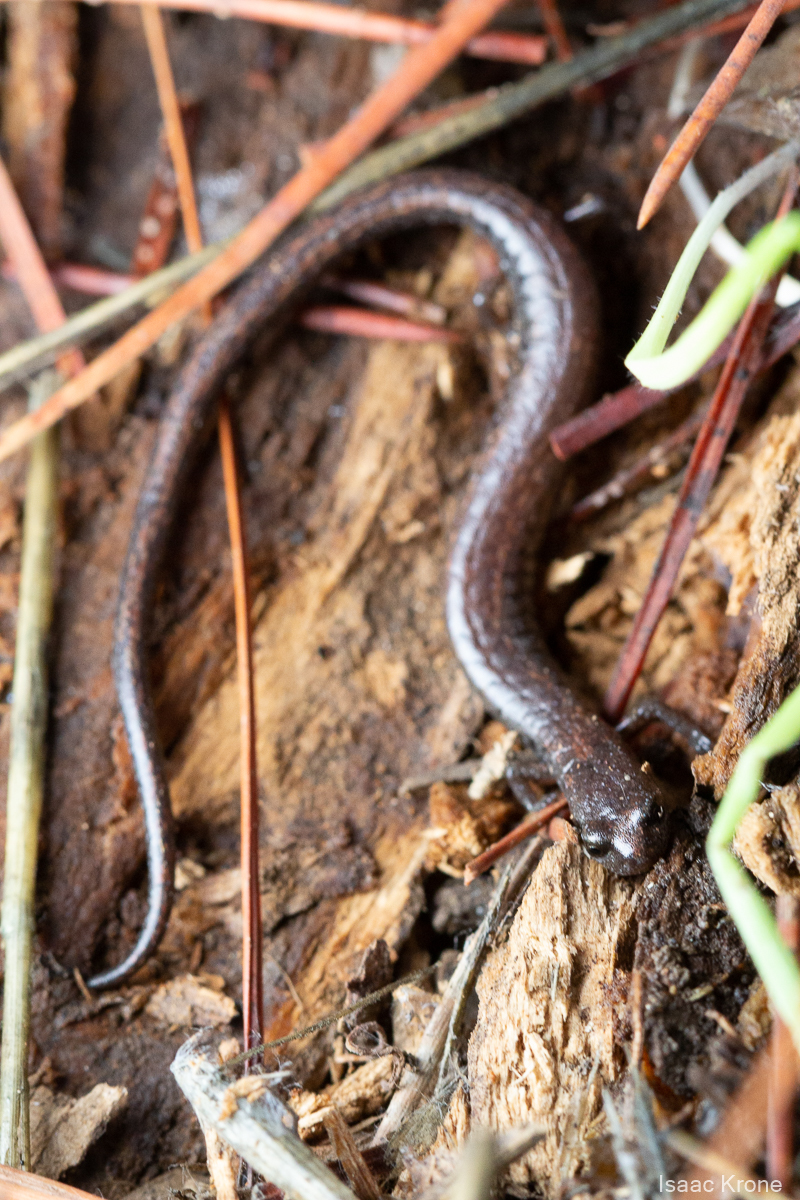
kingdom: Animalia
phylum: Chordata
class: Amphibia
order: Caudata
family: Plethodontidae
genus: Batrachoseps
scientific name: Batrachoseps attenuatus
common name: California slender salamander
